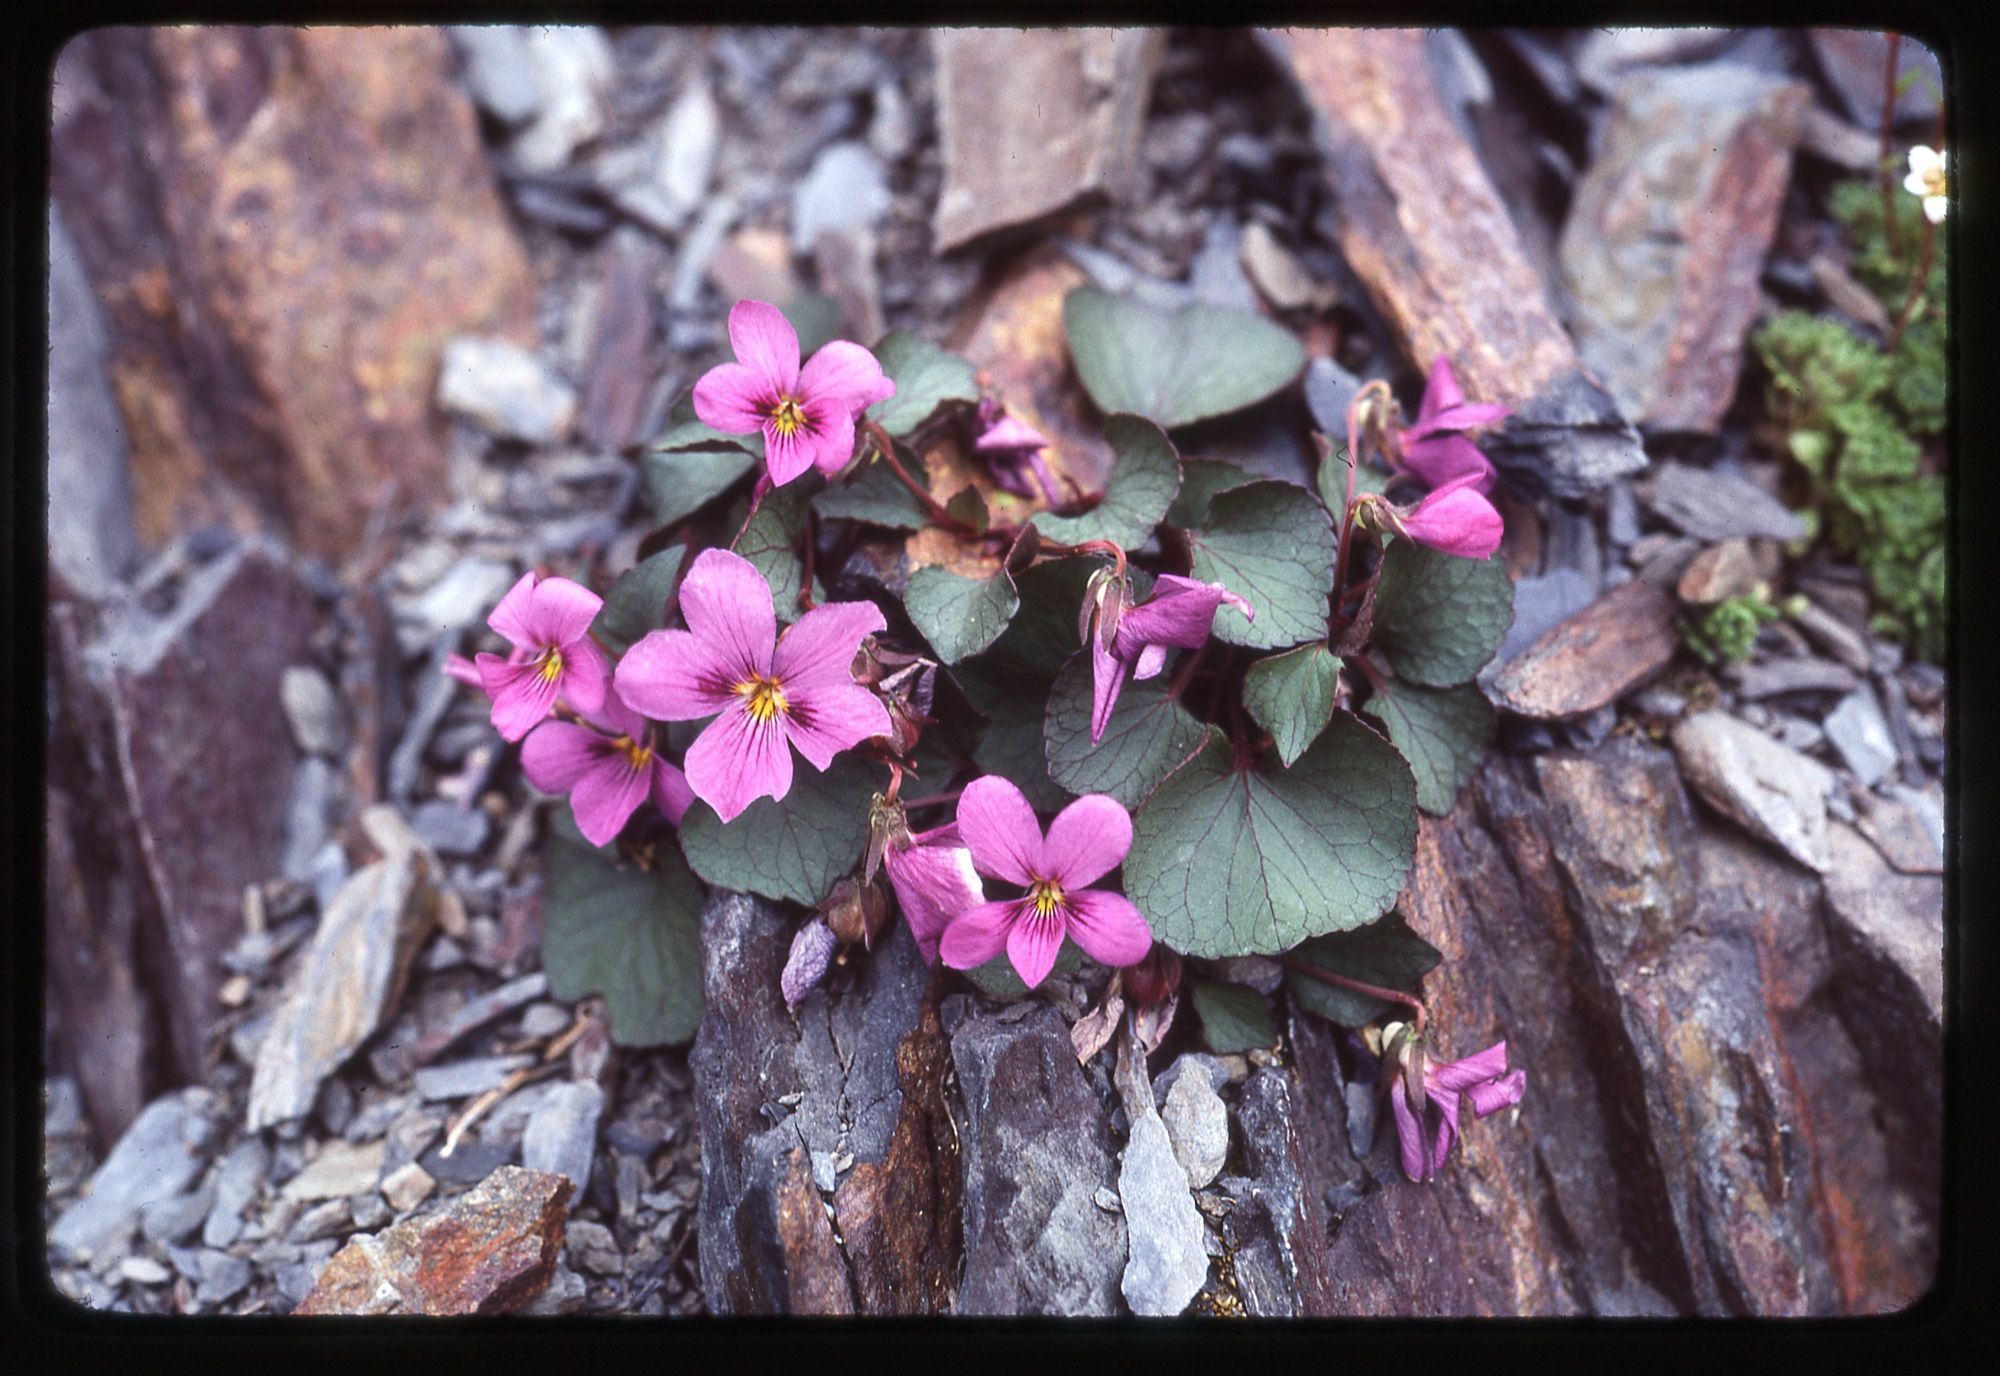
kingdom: Plantae
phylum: Tracheophyta
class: Magnoliopsida
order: Malpighiales
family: Violaceae
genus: Viola
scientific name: Viola flettii
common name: Rock violet
